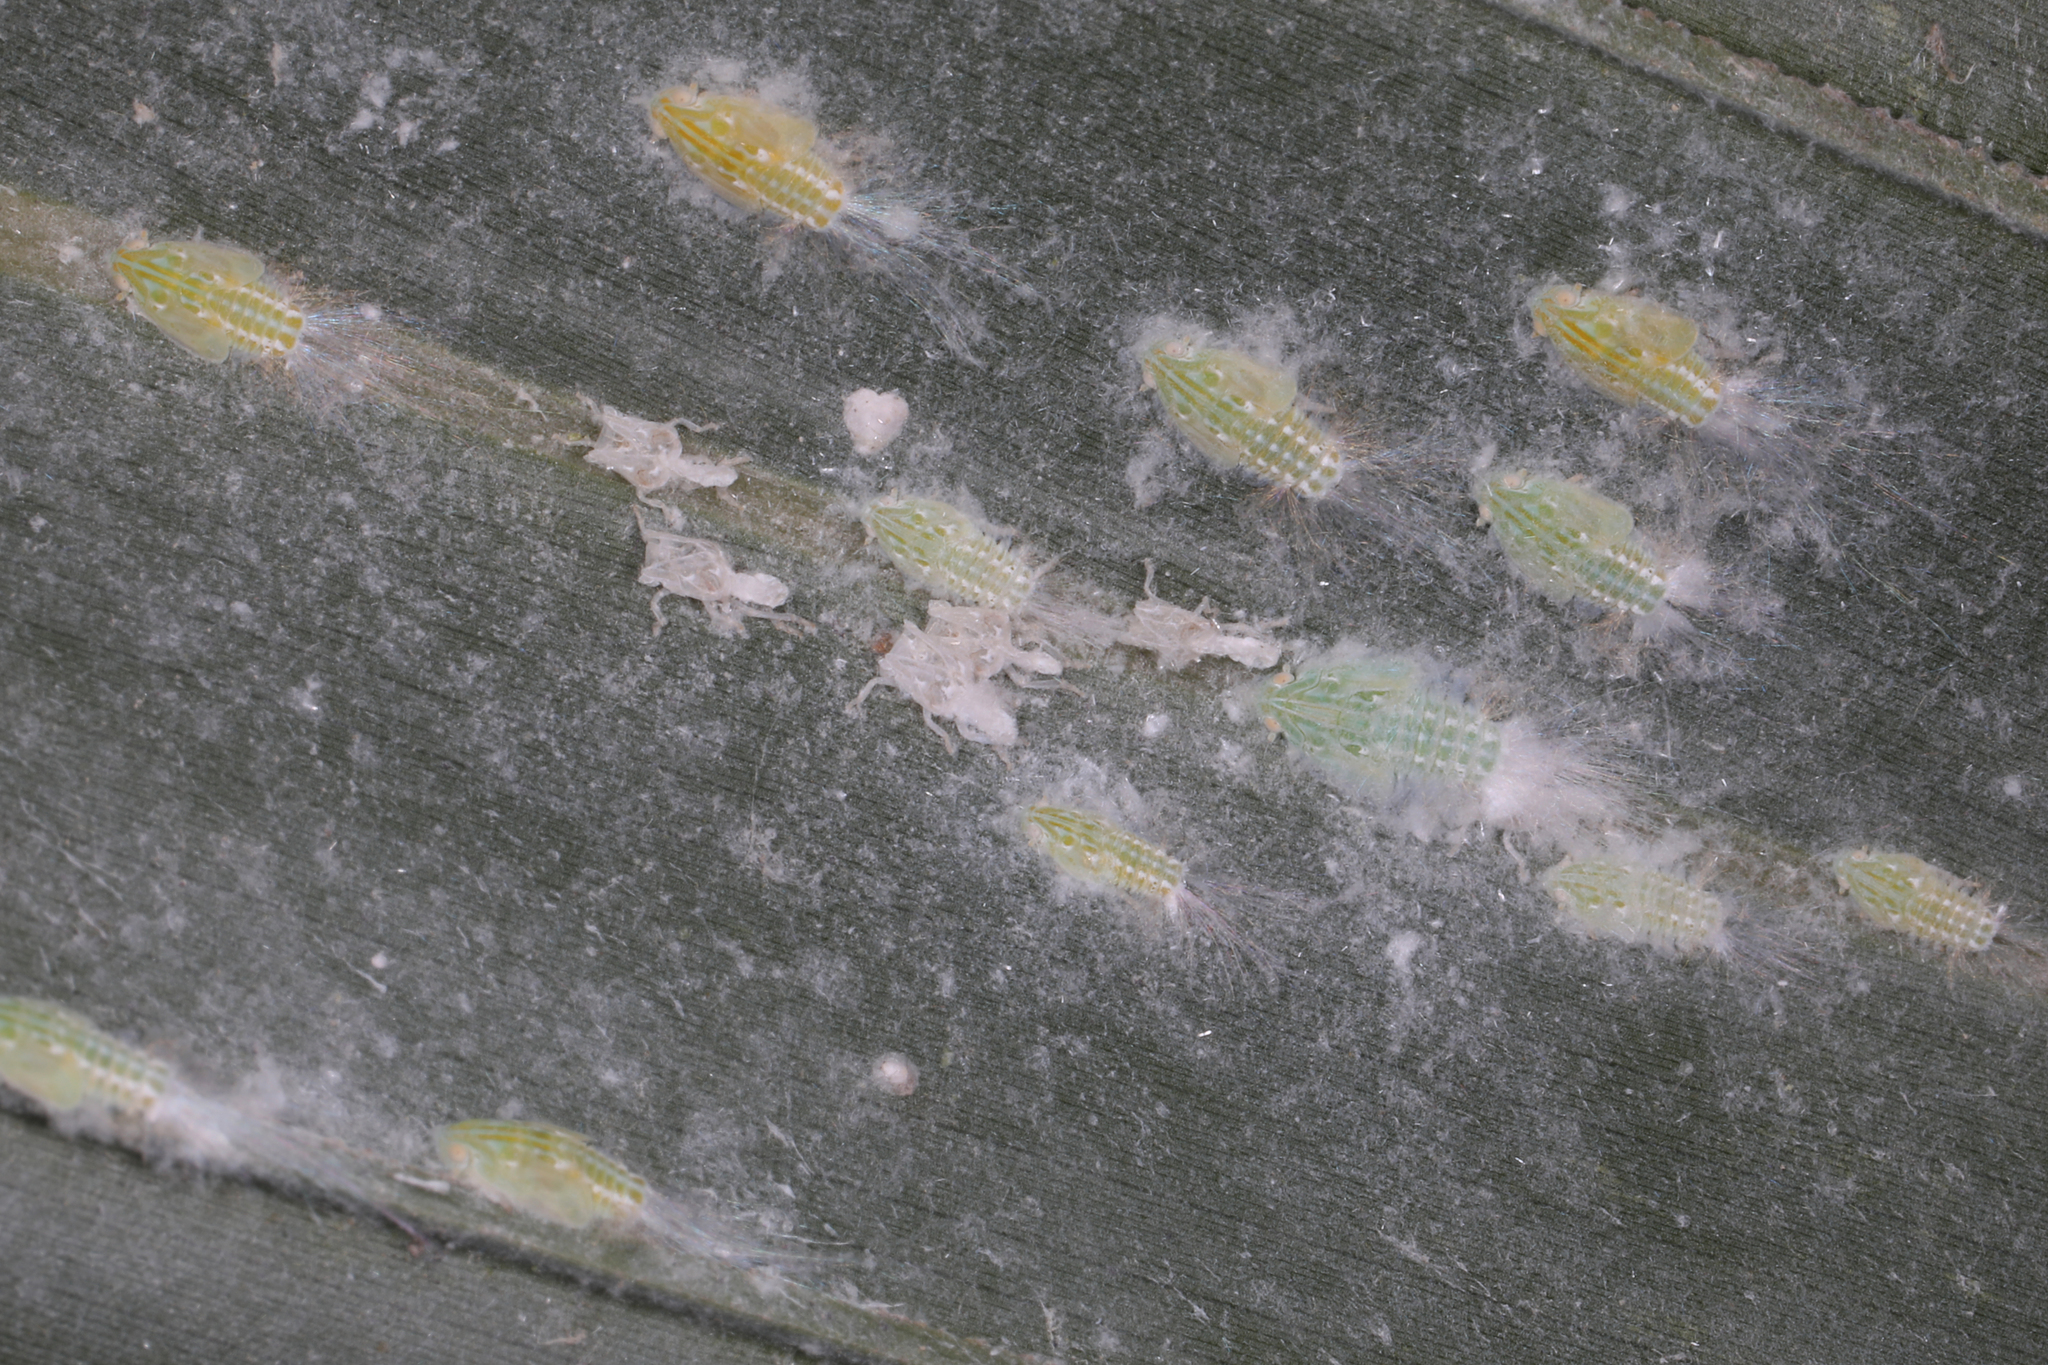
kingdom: Animalia
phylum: Arthropoda
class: Insecta
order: Hemiptera
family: Flatidae
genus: Ormenaria
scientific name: Ormenaria rufifascia
